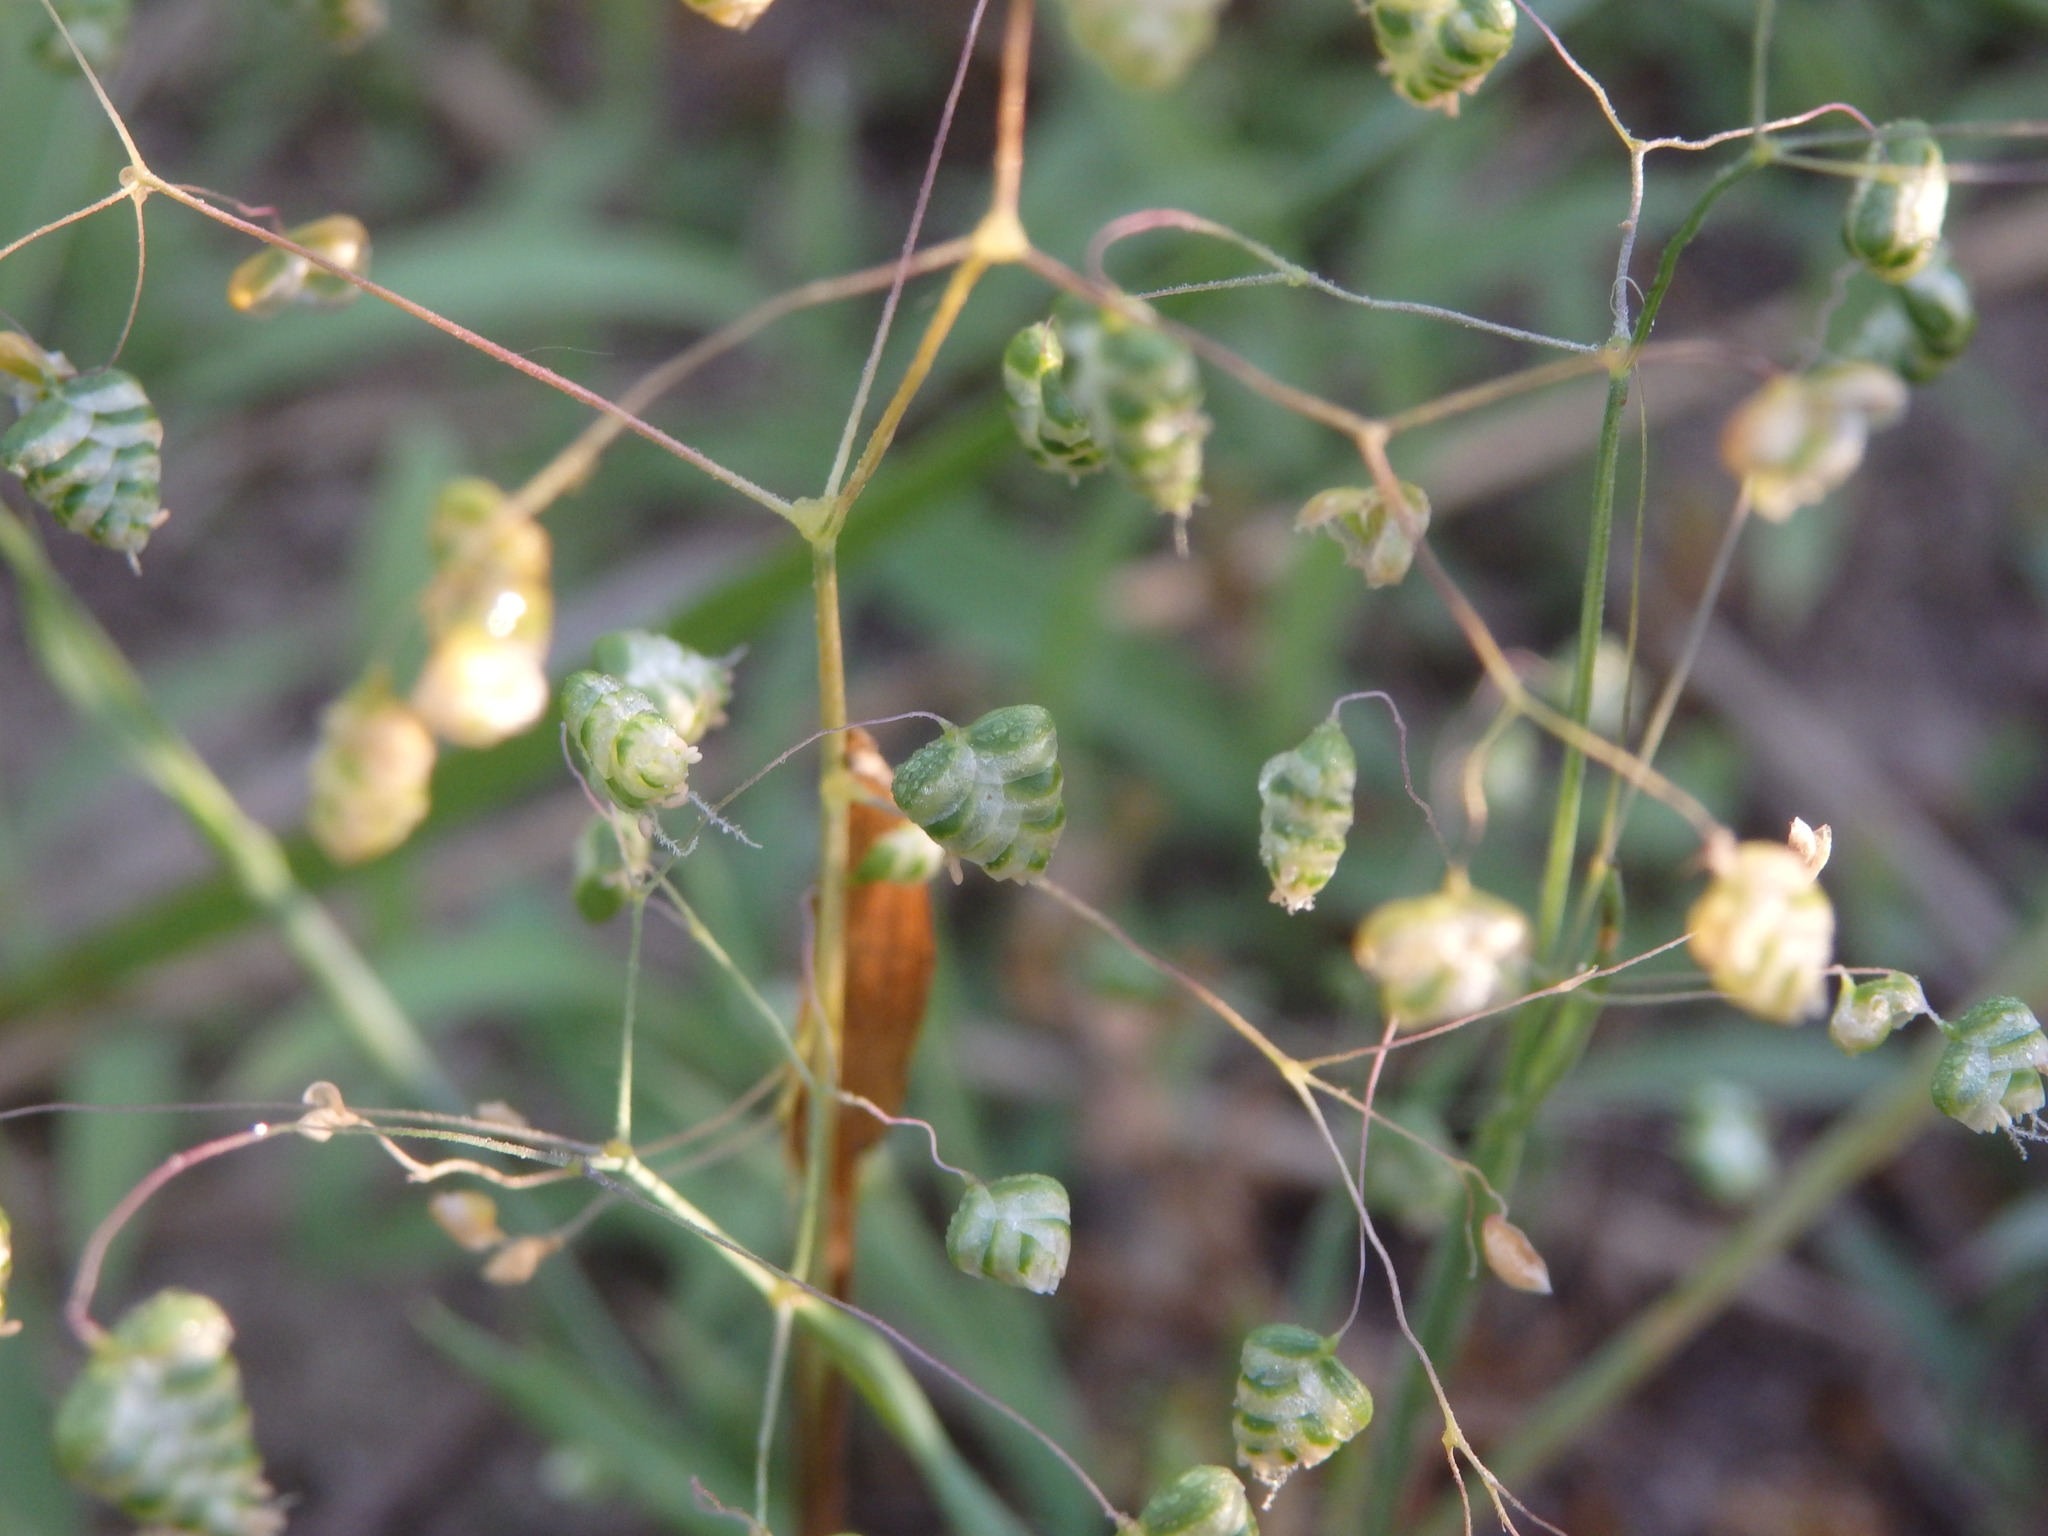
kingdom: Plantae
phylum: Tracheophyta
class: Liliopsida
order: Poales
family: Poaceae
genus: Briza
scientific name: Briza minor
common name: Lesser quaking-grass
